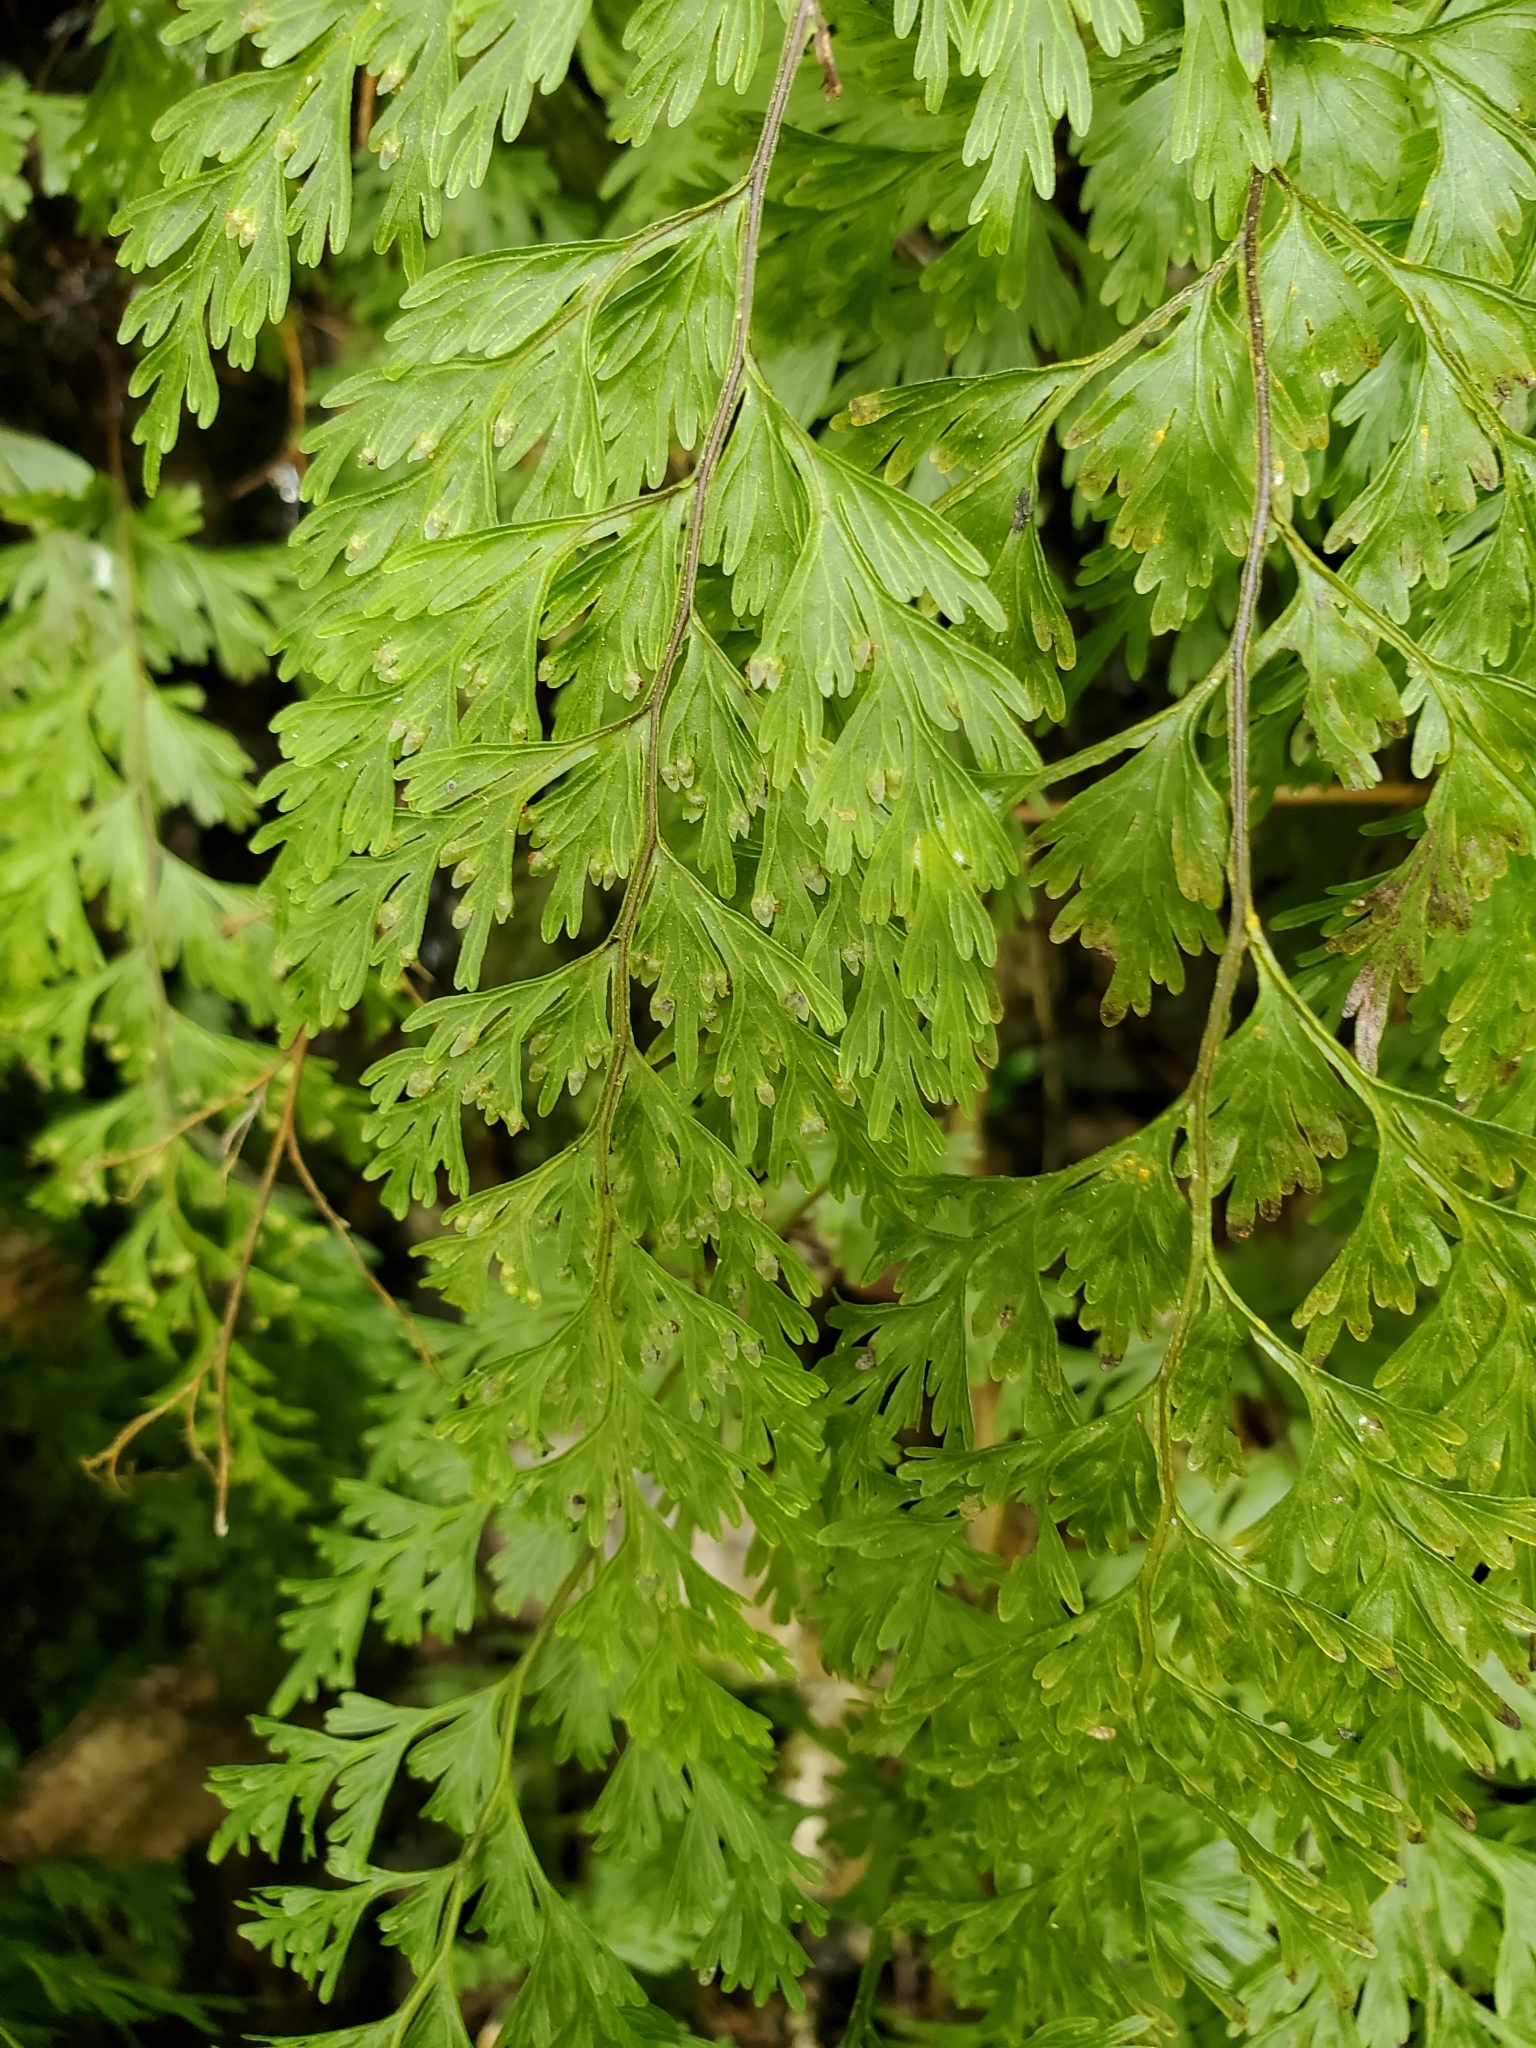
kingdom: Plantae
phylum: Tracheophyta
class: Polypodiopsida
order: Hymenophyllales
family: Hymenophyllaceae
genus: Hymenophyllum
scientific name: Hymenophyllum demissum
